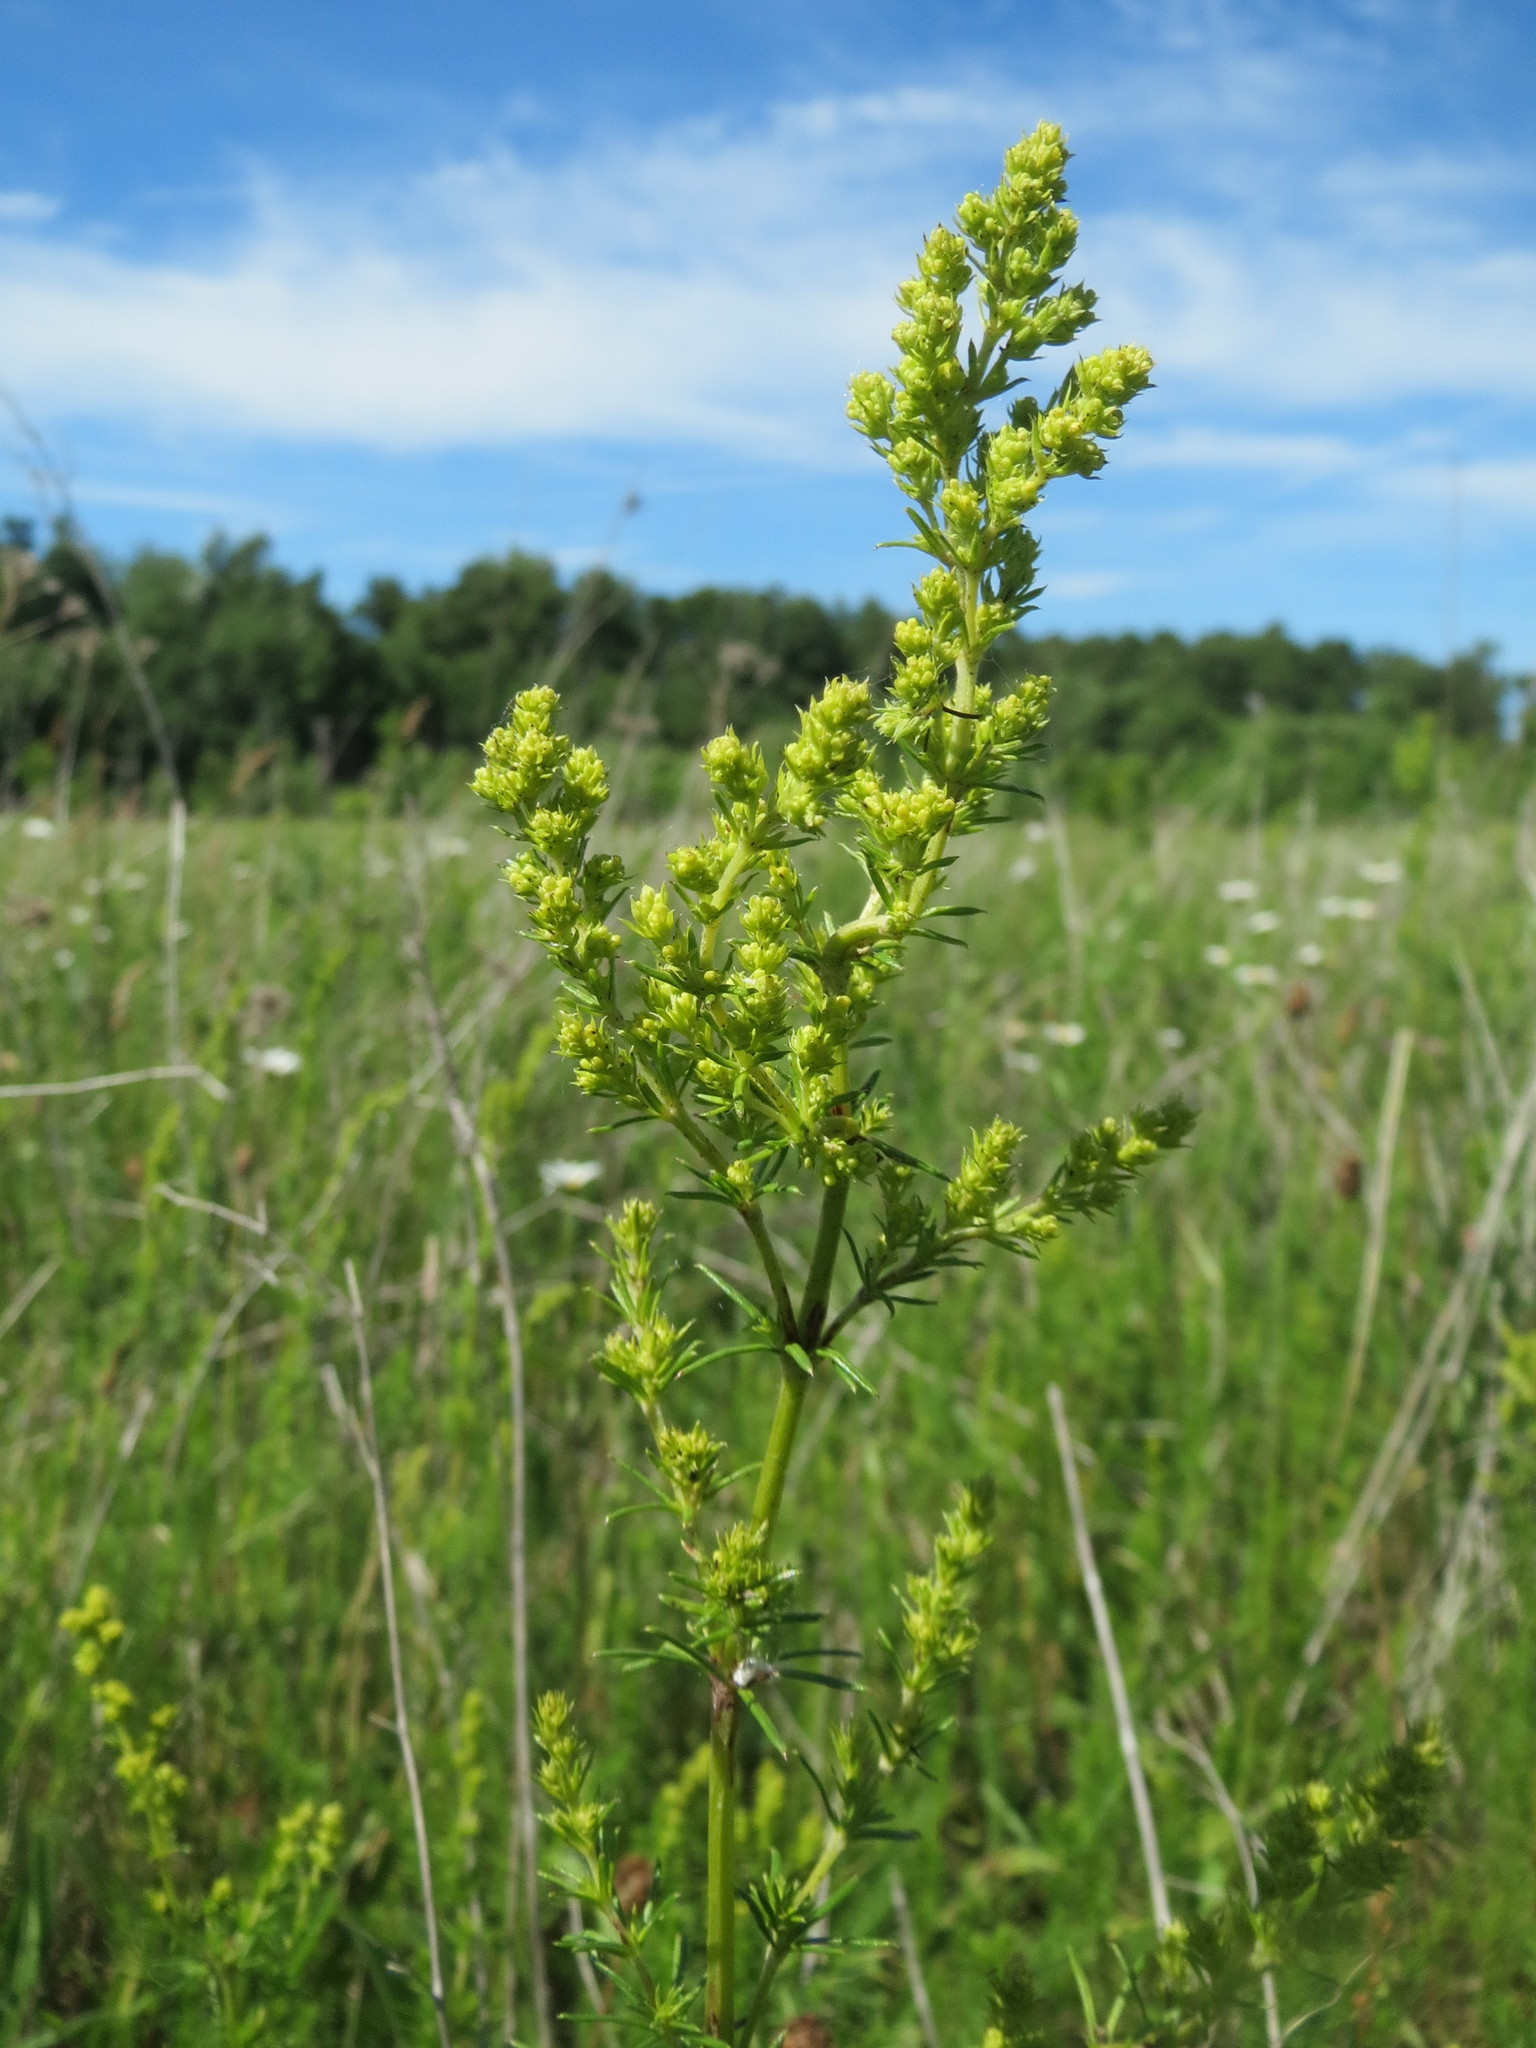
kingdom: Plantae
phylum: Tracheophyta
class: Magnoliopsida
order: Gentianales
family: Rubiaceae
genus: Galium
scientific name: Galium verum
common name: Lady's bedstraw
